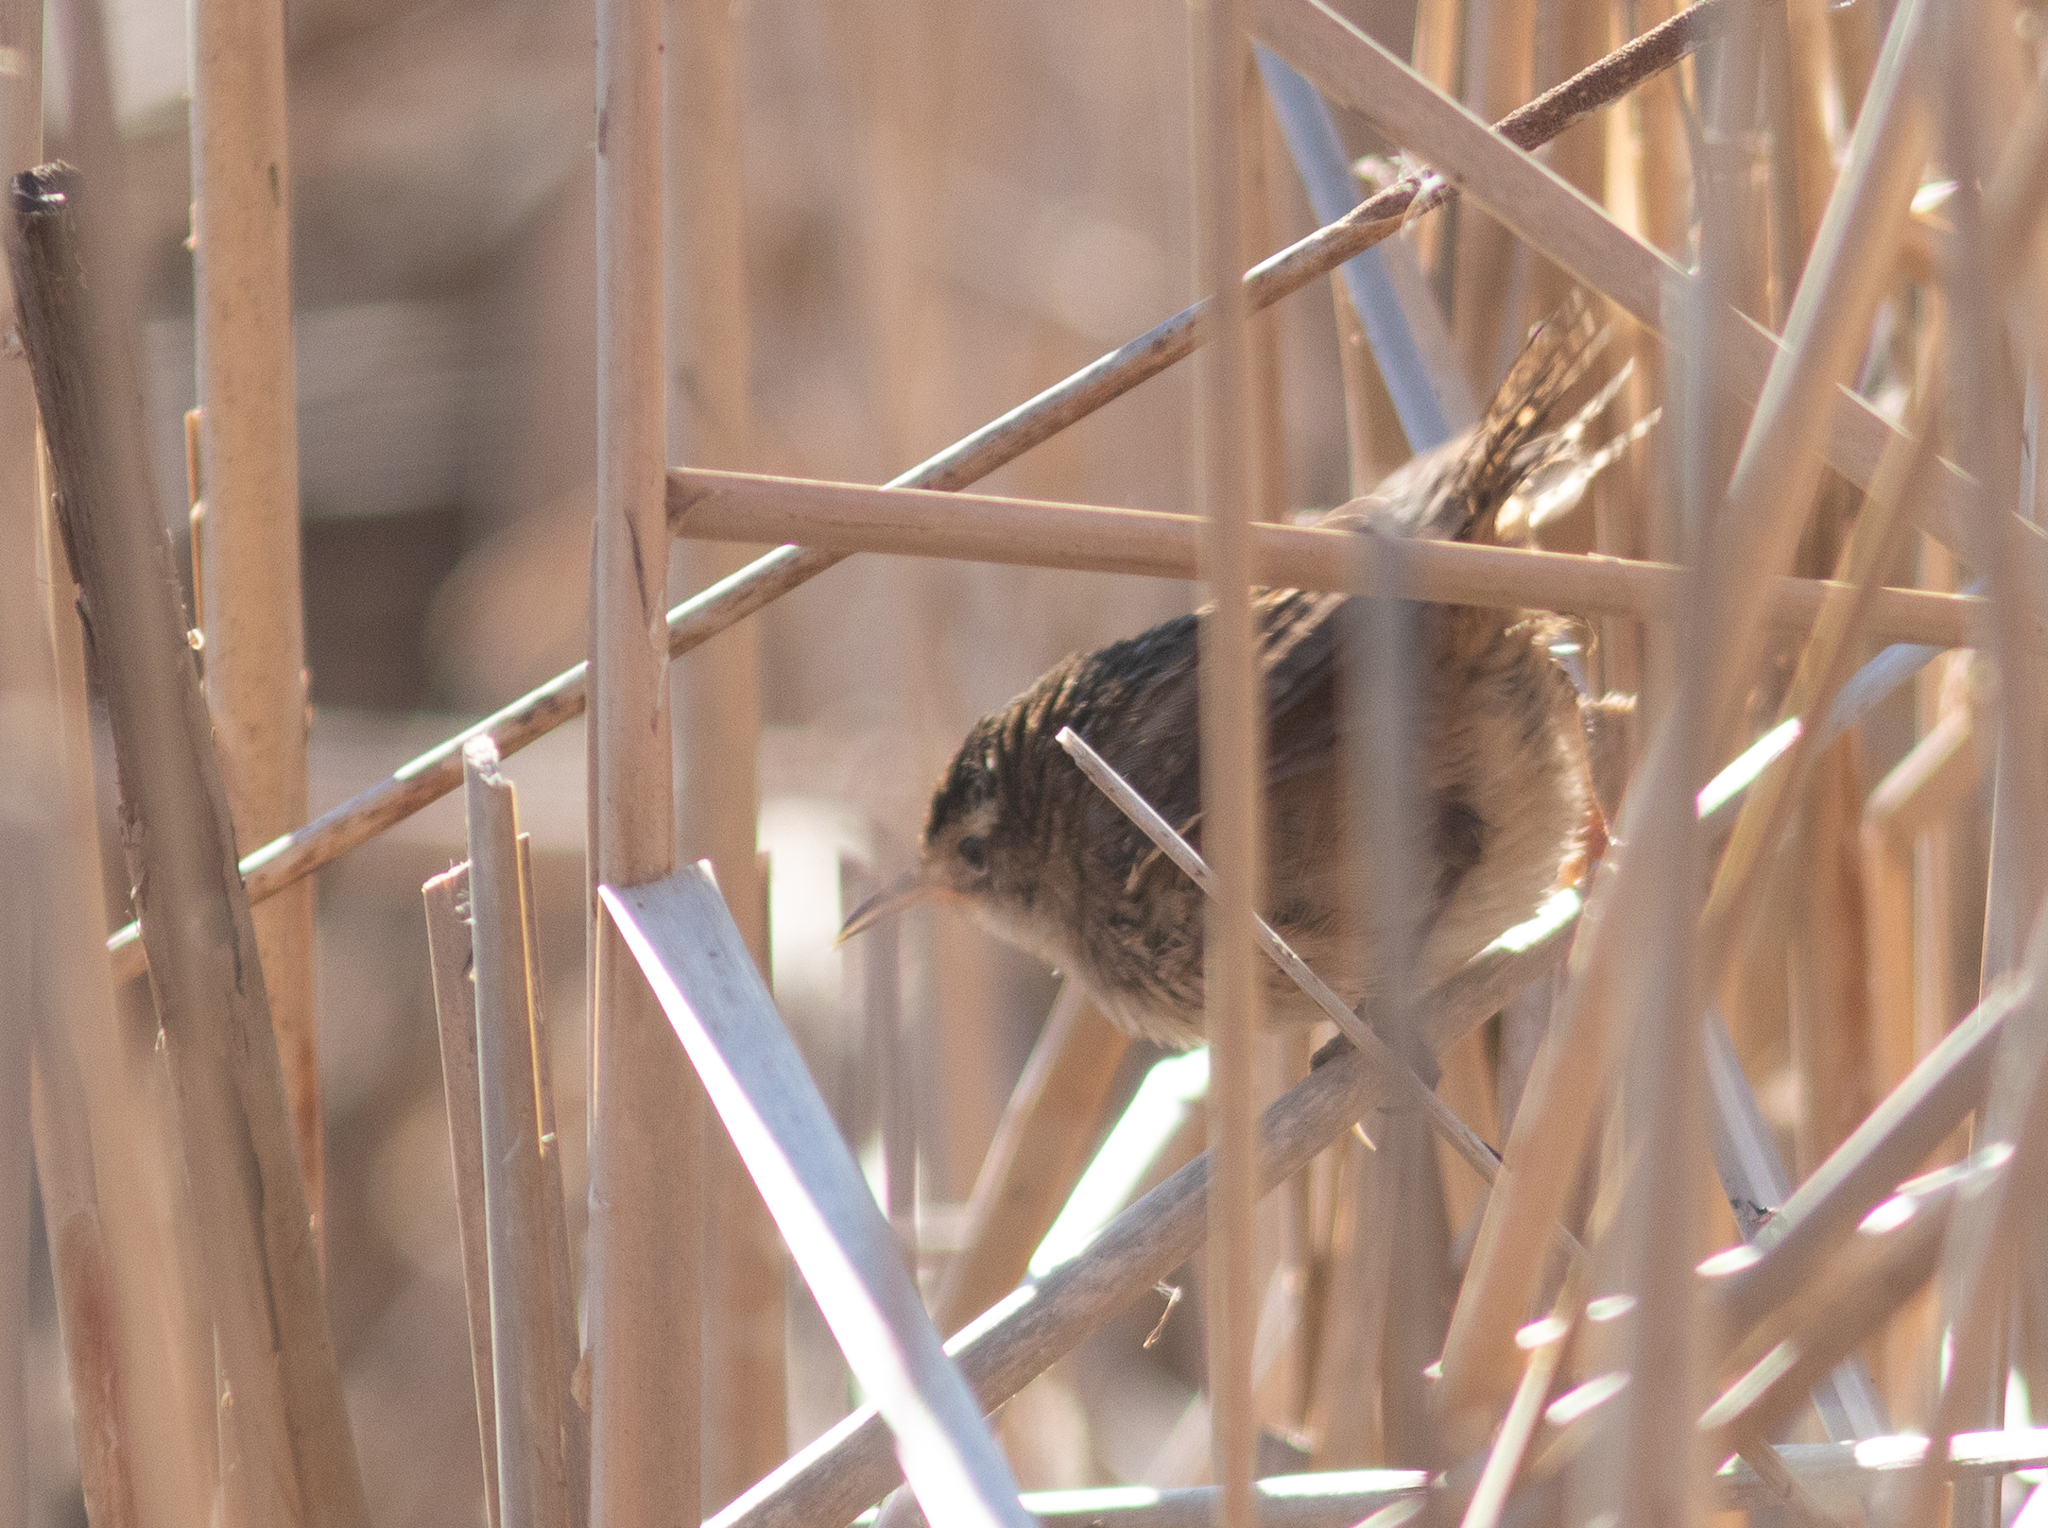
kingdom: Animalia
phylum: Chordata
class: Aves
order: Passeriformes
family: Troglodytidae
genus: Cistothorus
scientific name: Cistothorus palustris
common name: Marsh wren
